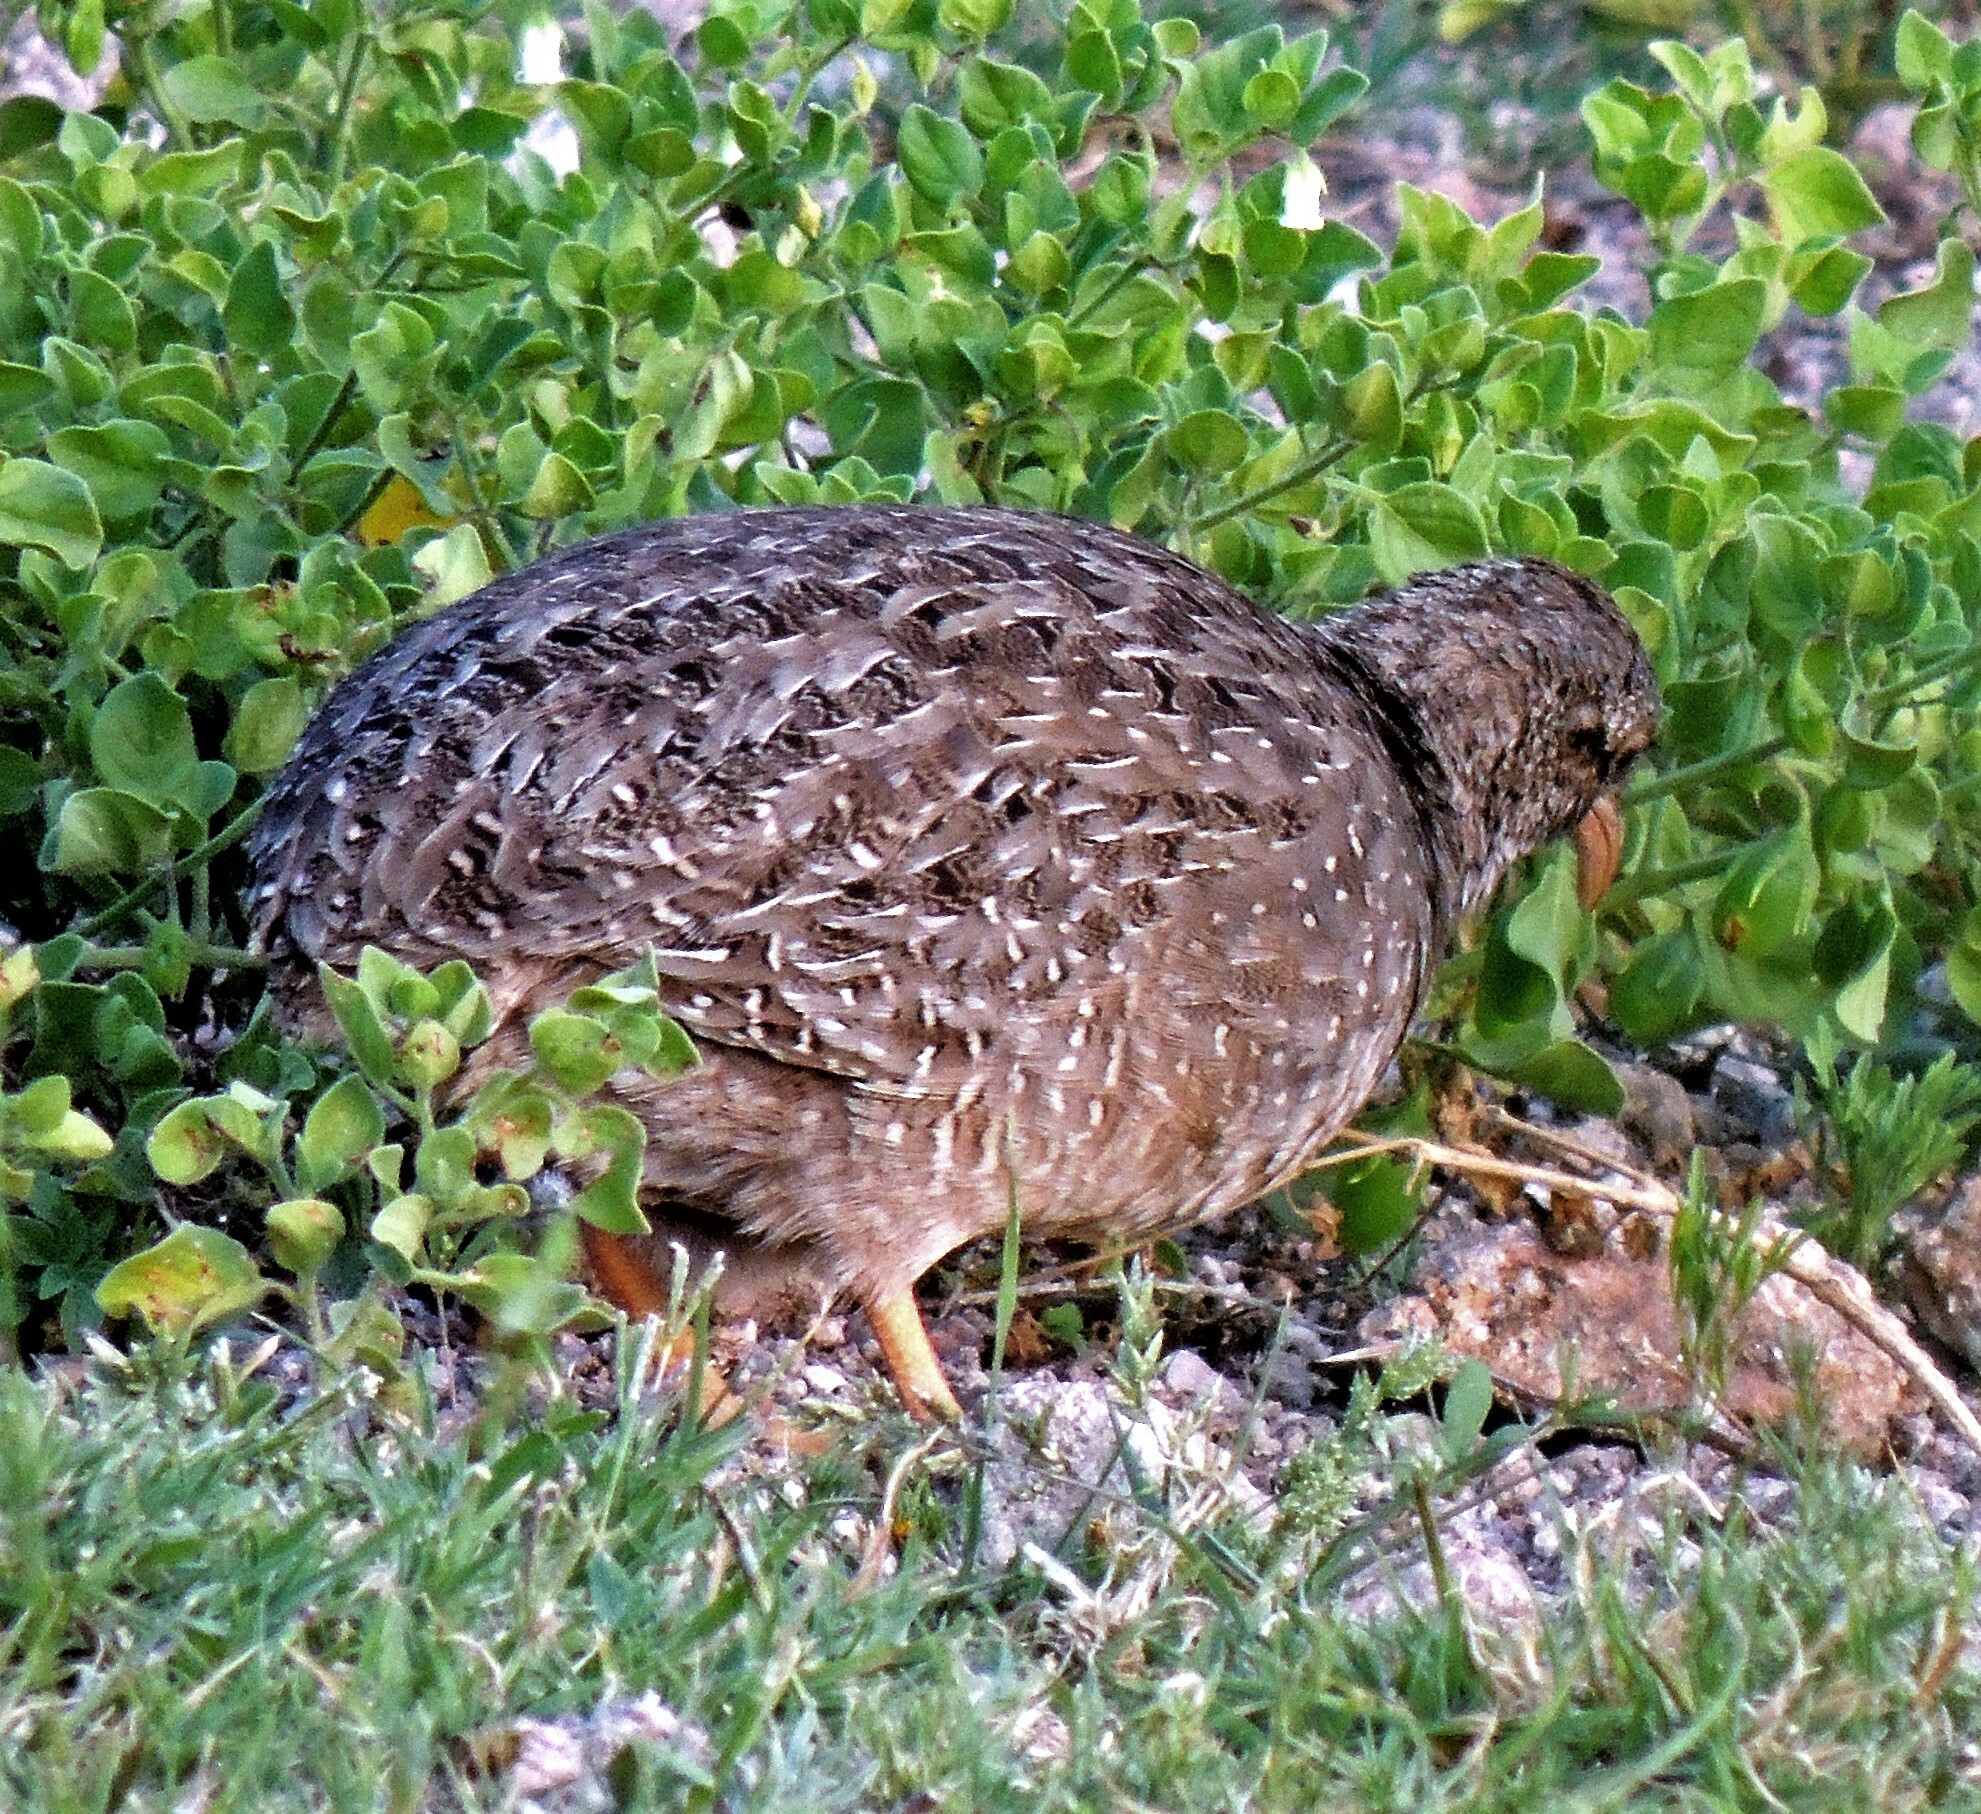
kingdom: Animalia
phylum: Chordata
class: Aves
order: Tinamiformes
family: Tinamidae
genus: Nothoprocta
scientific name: Nothoprocta pentlandii
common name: Andean tinamou
